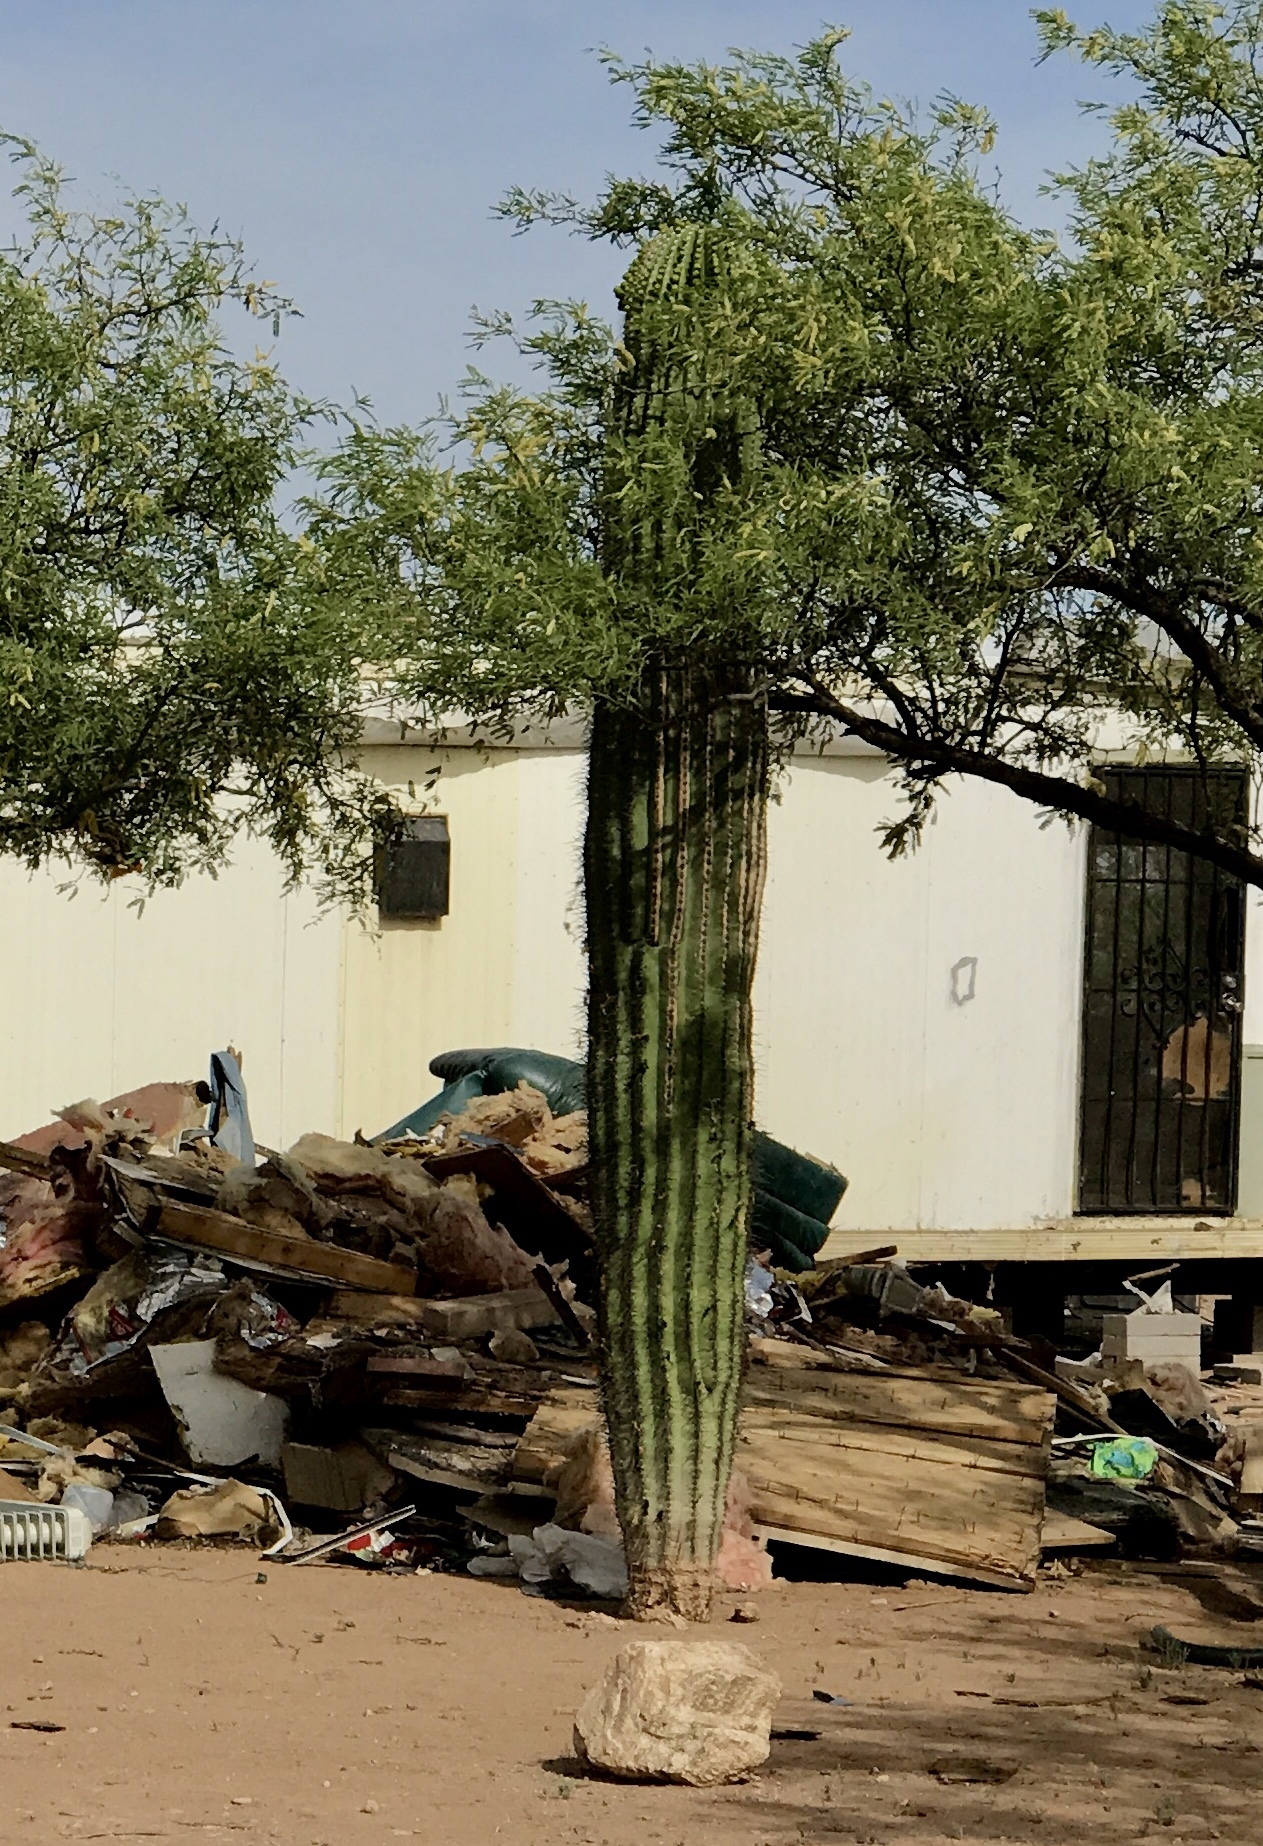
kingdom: Plantae
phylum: Tracheophyta
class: Magnoliopsida
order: Caryophyllales
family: Cactaceae
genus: Carnegiea
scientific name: Carnegiea gigantea
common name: Saguaro
